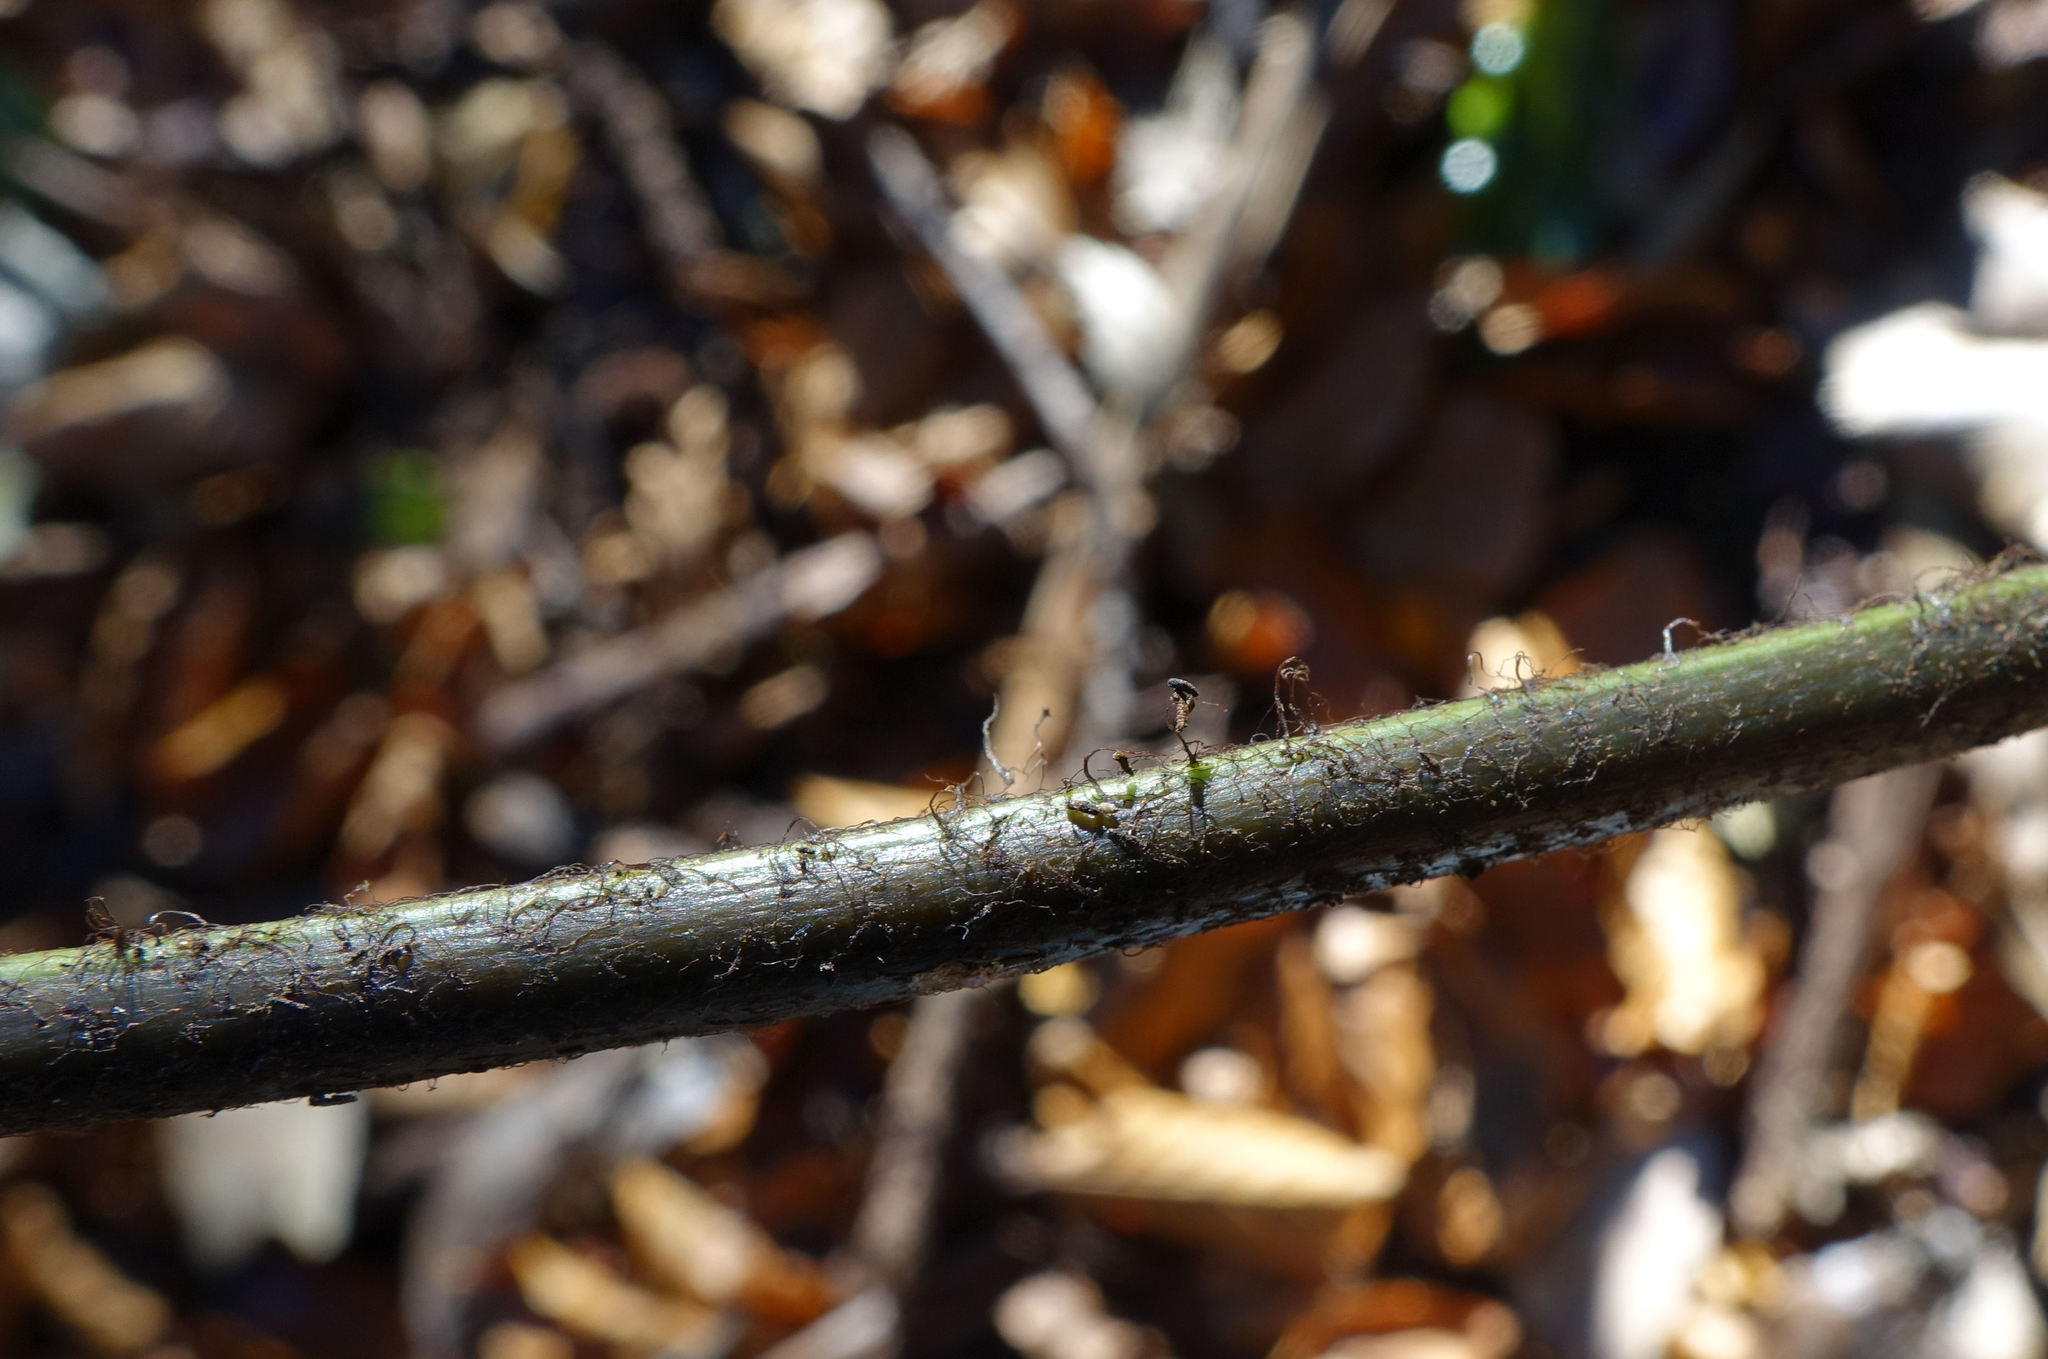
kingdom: Plantae
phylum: Tracheophyta
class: Polypodiopsida
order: Polypodiales
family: Aspleniaceae
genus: Asplenium
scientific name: Asplenium oblongifolium
